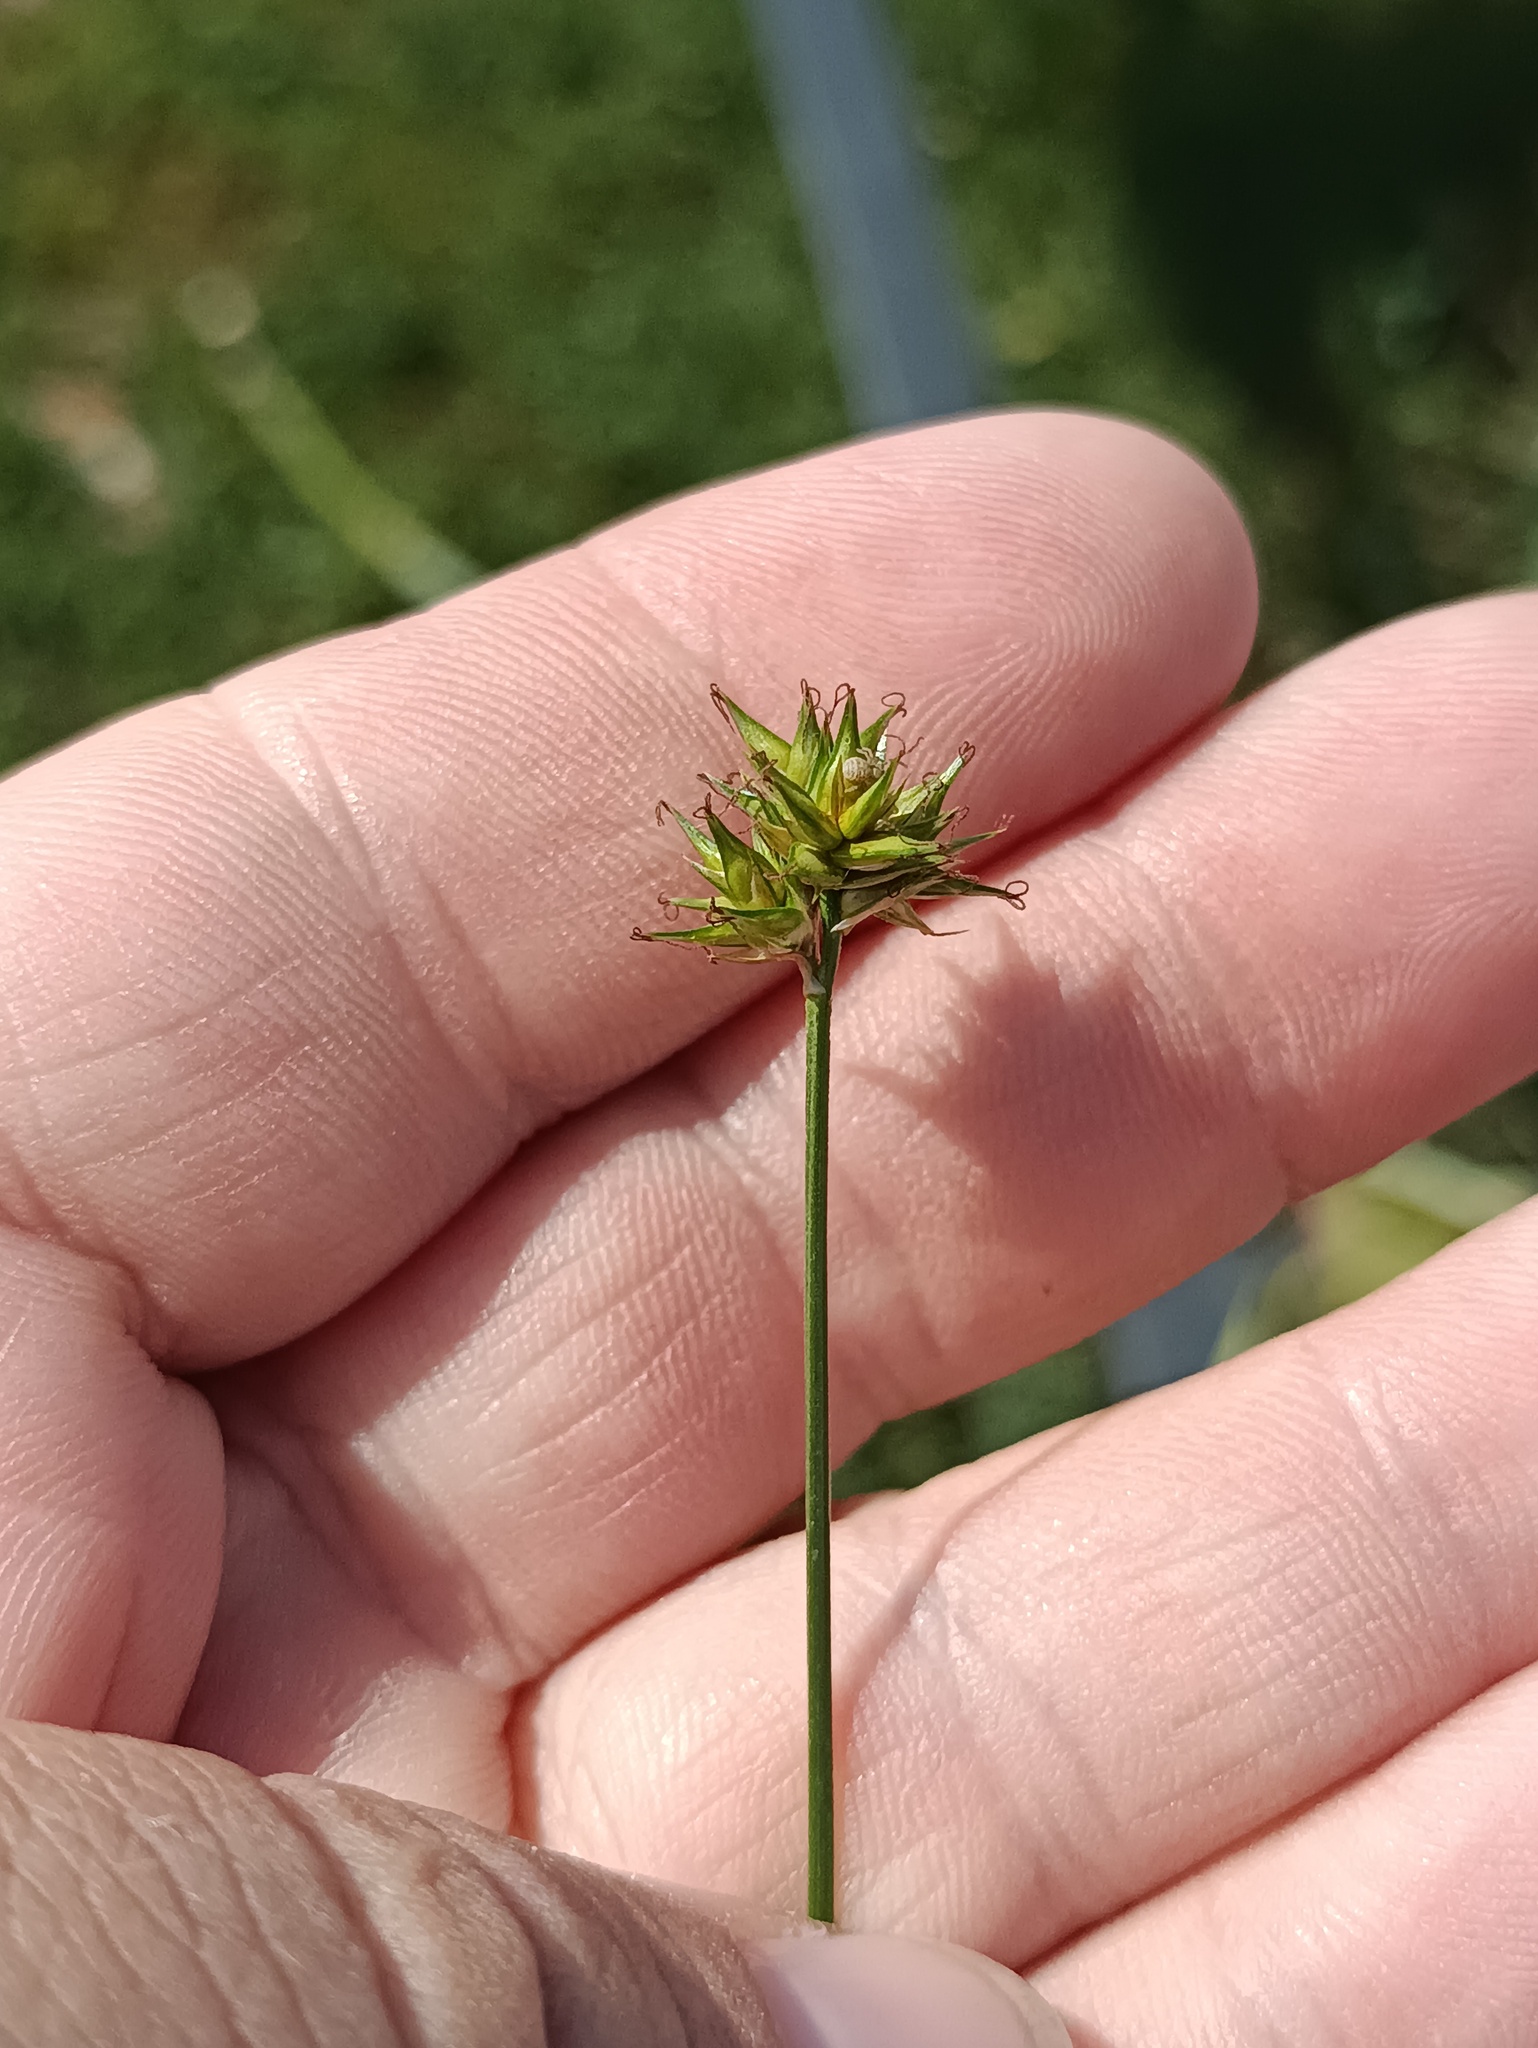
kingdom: Plantae
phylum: Tracheophyta
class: Liliopsida
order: Poales
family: Cyperaceae
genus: Carex
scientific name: Carex spicata
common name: Spiked sedge
